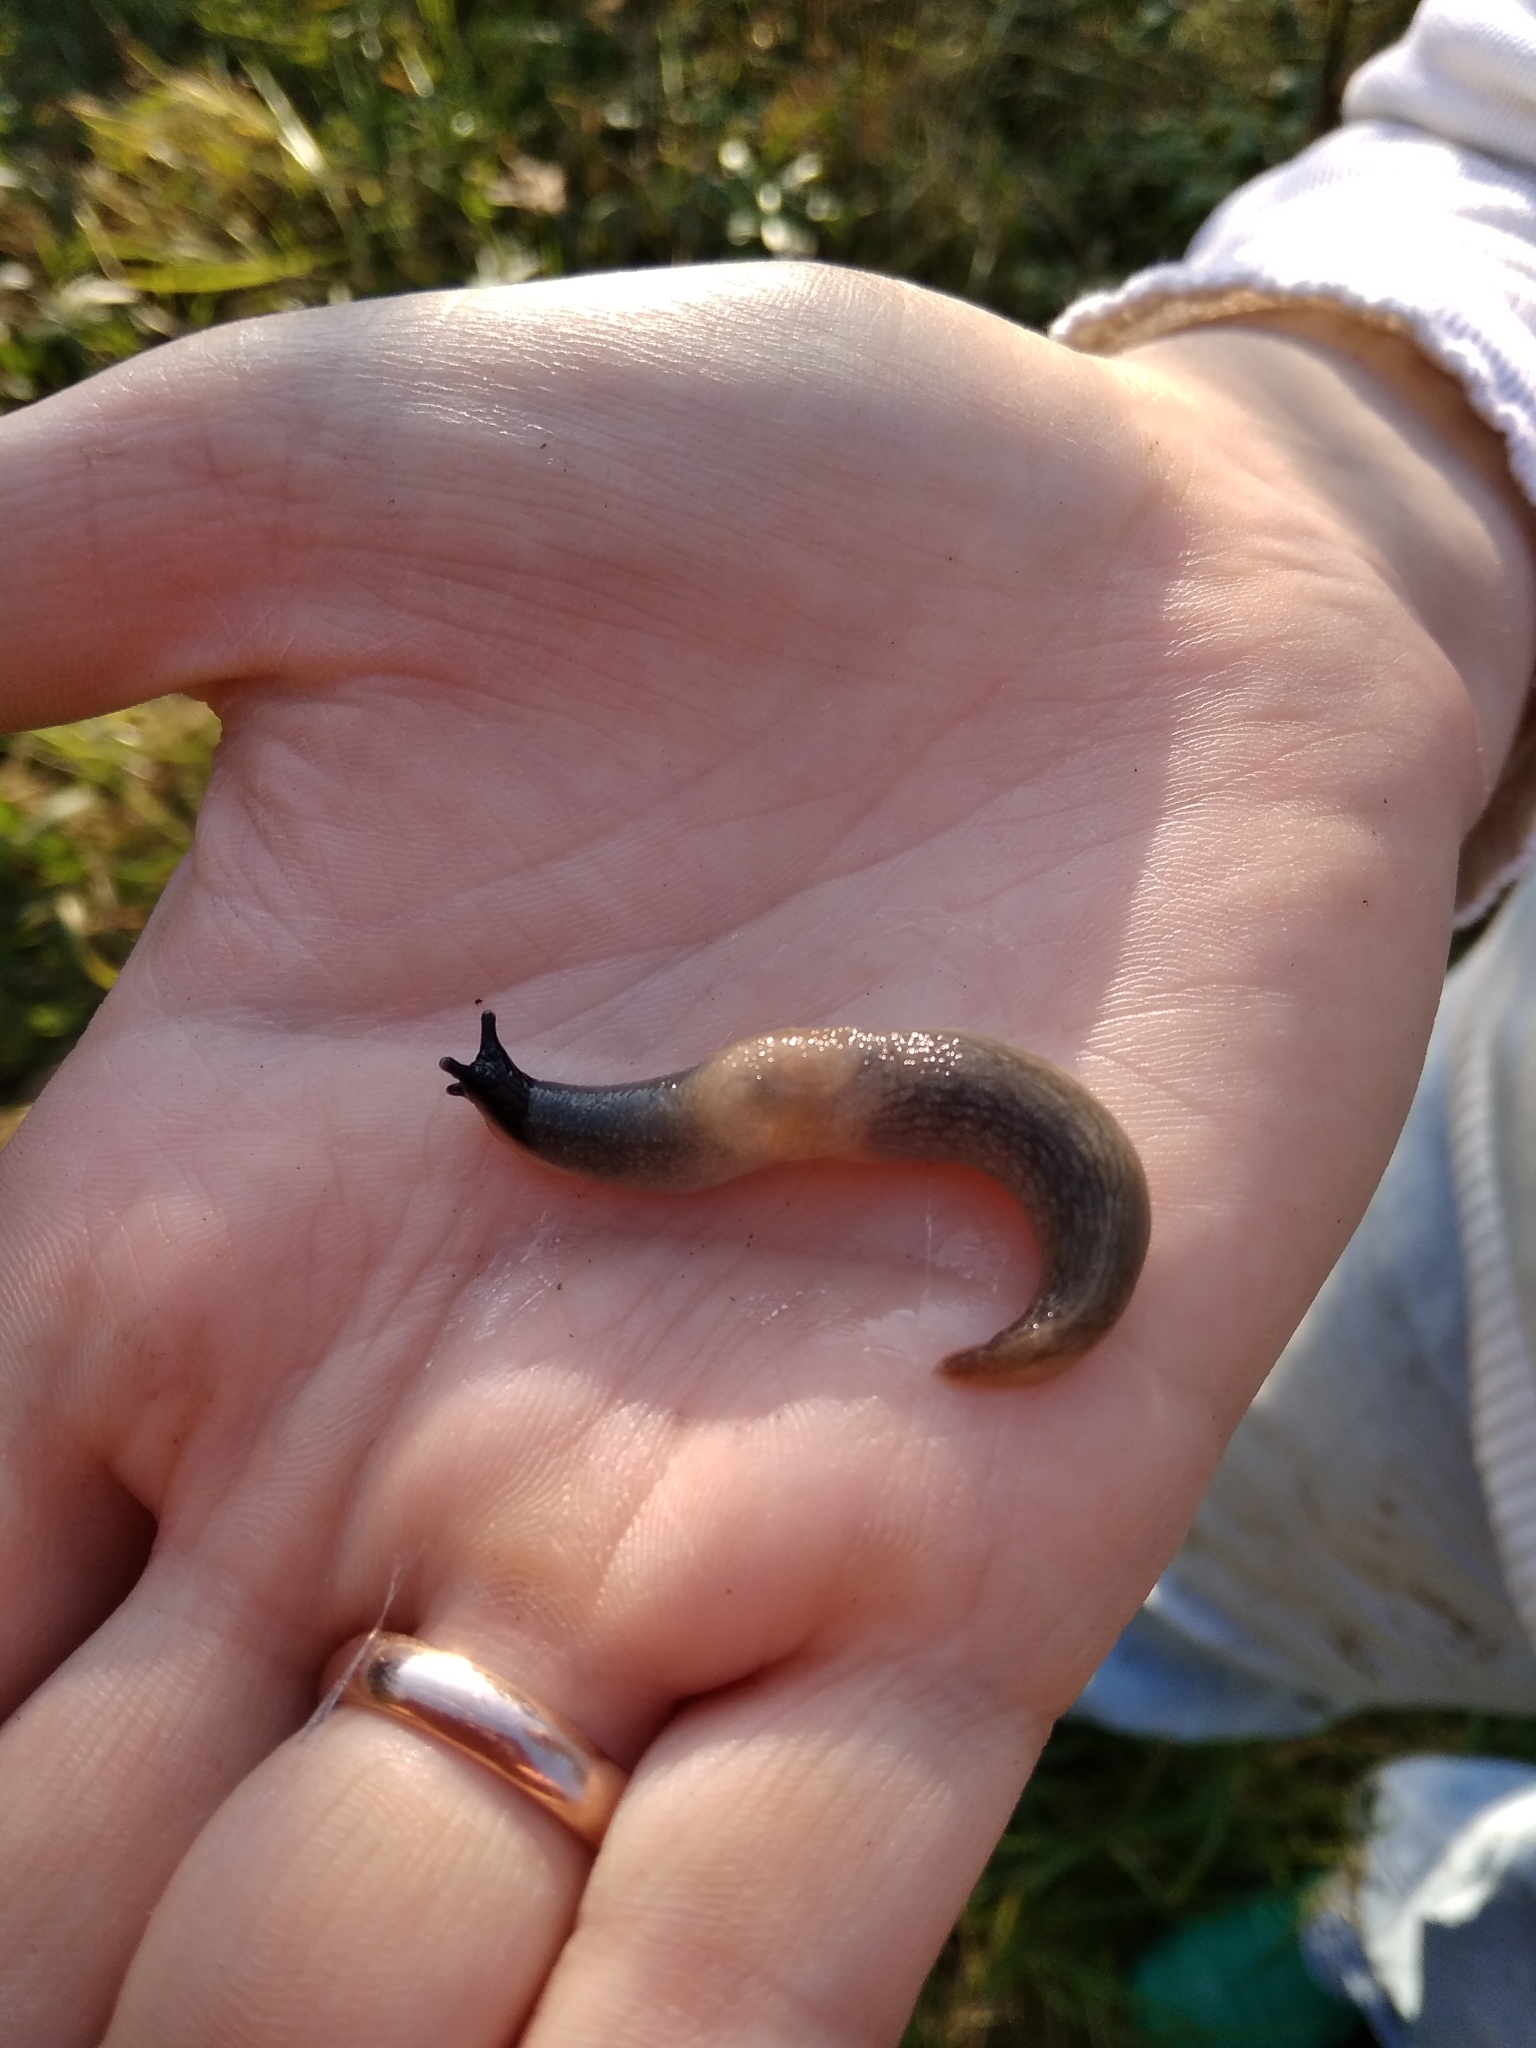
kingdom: Animalia
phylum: Mollusca
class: Gastropoda
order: Stylommatophora
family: Agriolimacidae
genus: Krynickillus
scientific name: Krynickillus melanocephalus
